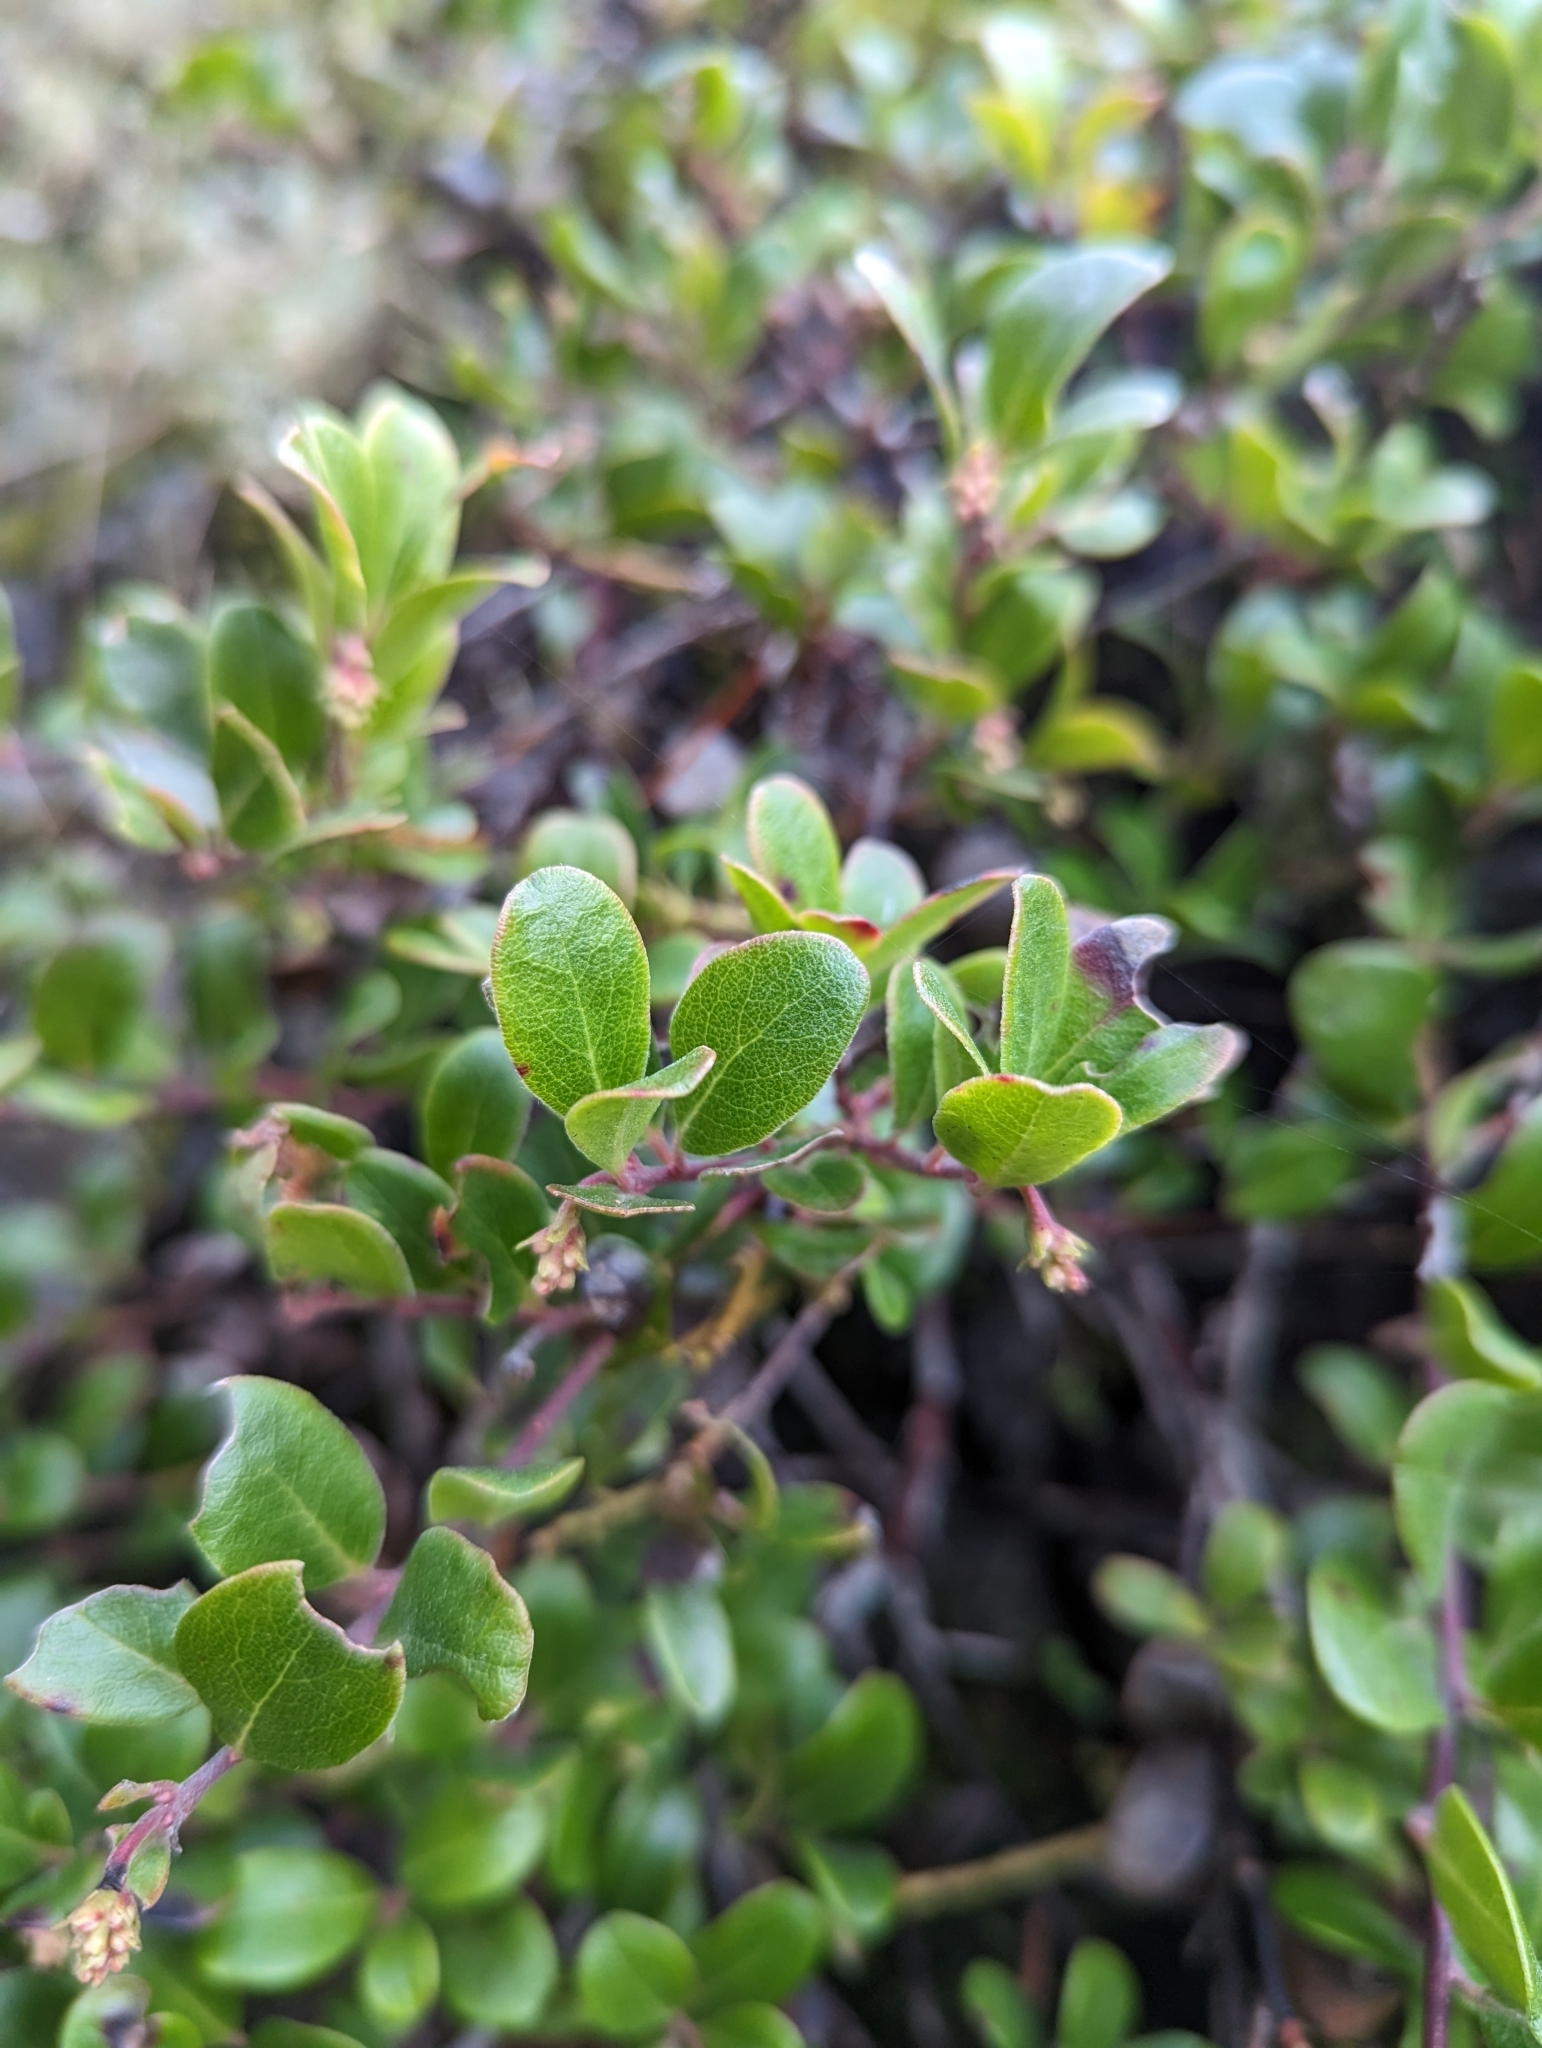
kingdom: Plantae
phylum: Tracheophyta
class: Magnoliopsida
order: Ericales
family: Ericaceae
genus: Arctostaphylos
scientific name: Arctostaphylos uva-ursi
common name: Bearberry
